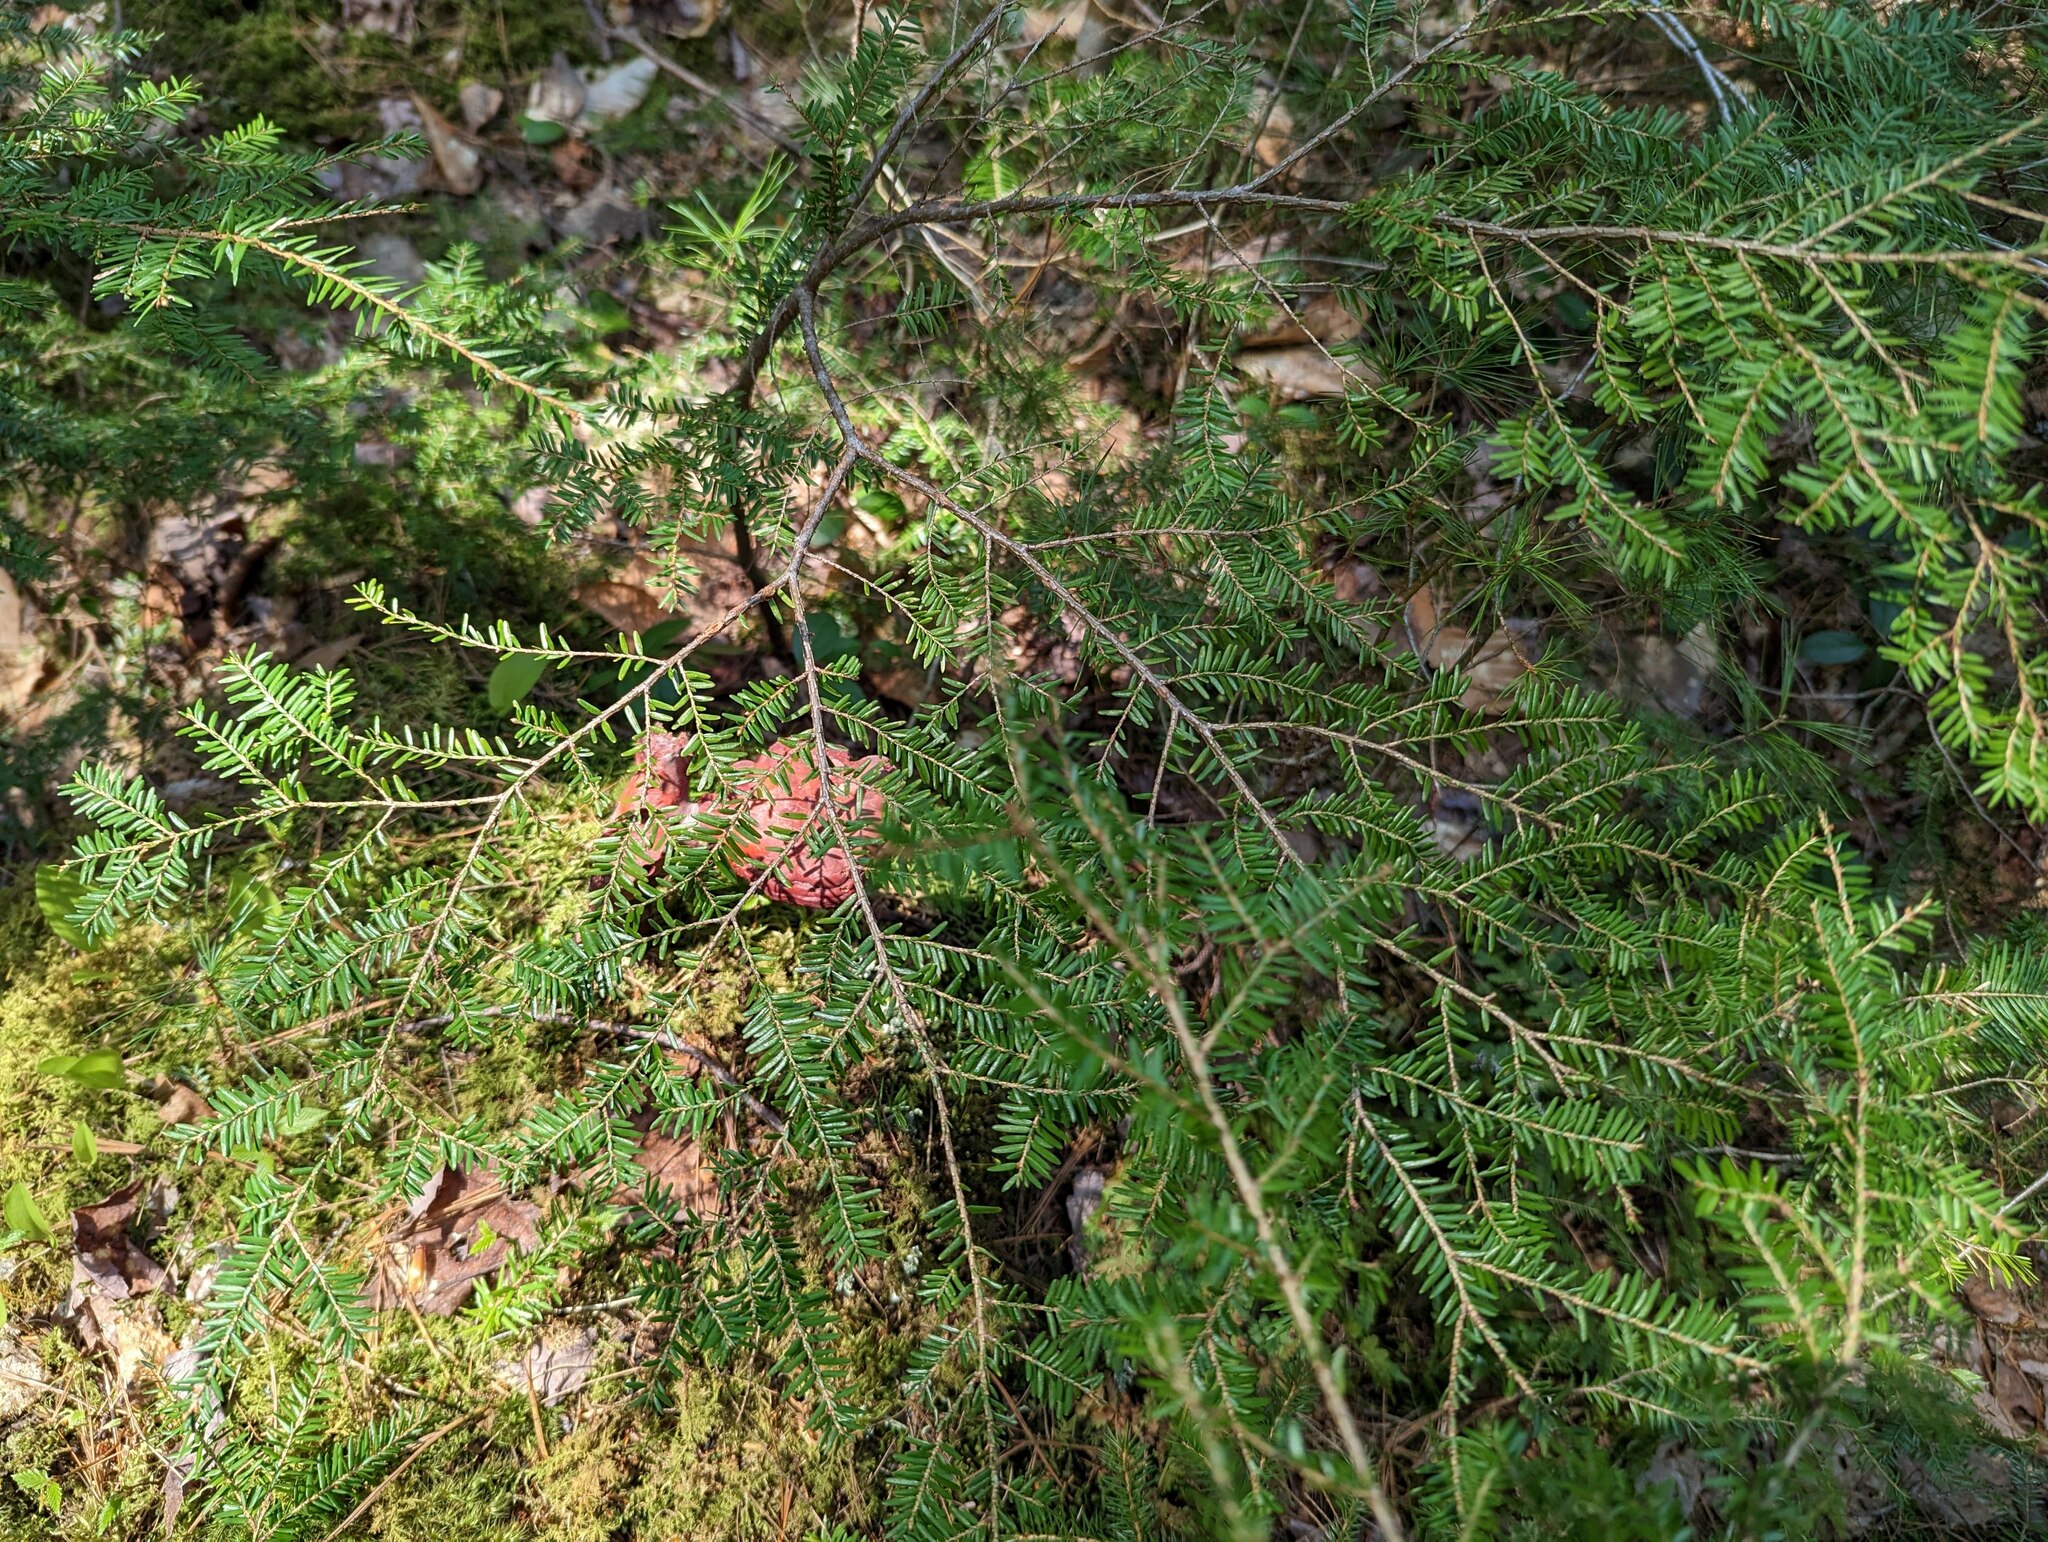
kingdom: Plantae
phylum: Tracheophyta
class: Pinopsida
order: Pinales
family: Pinaceae
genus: Tsuga
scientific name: Tsuga canadensis
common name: Eastern hemlock
